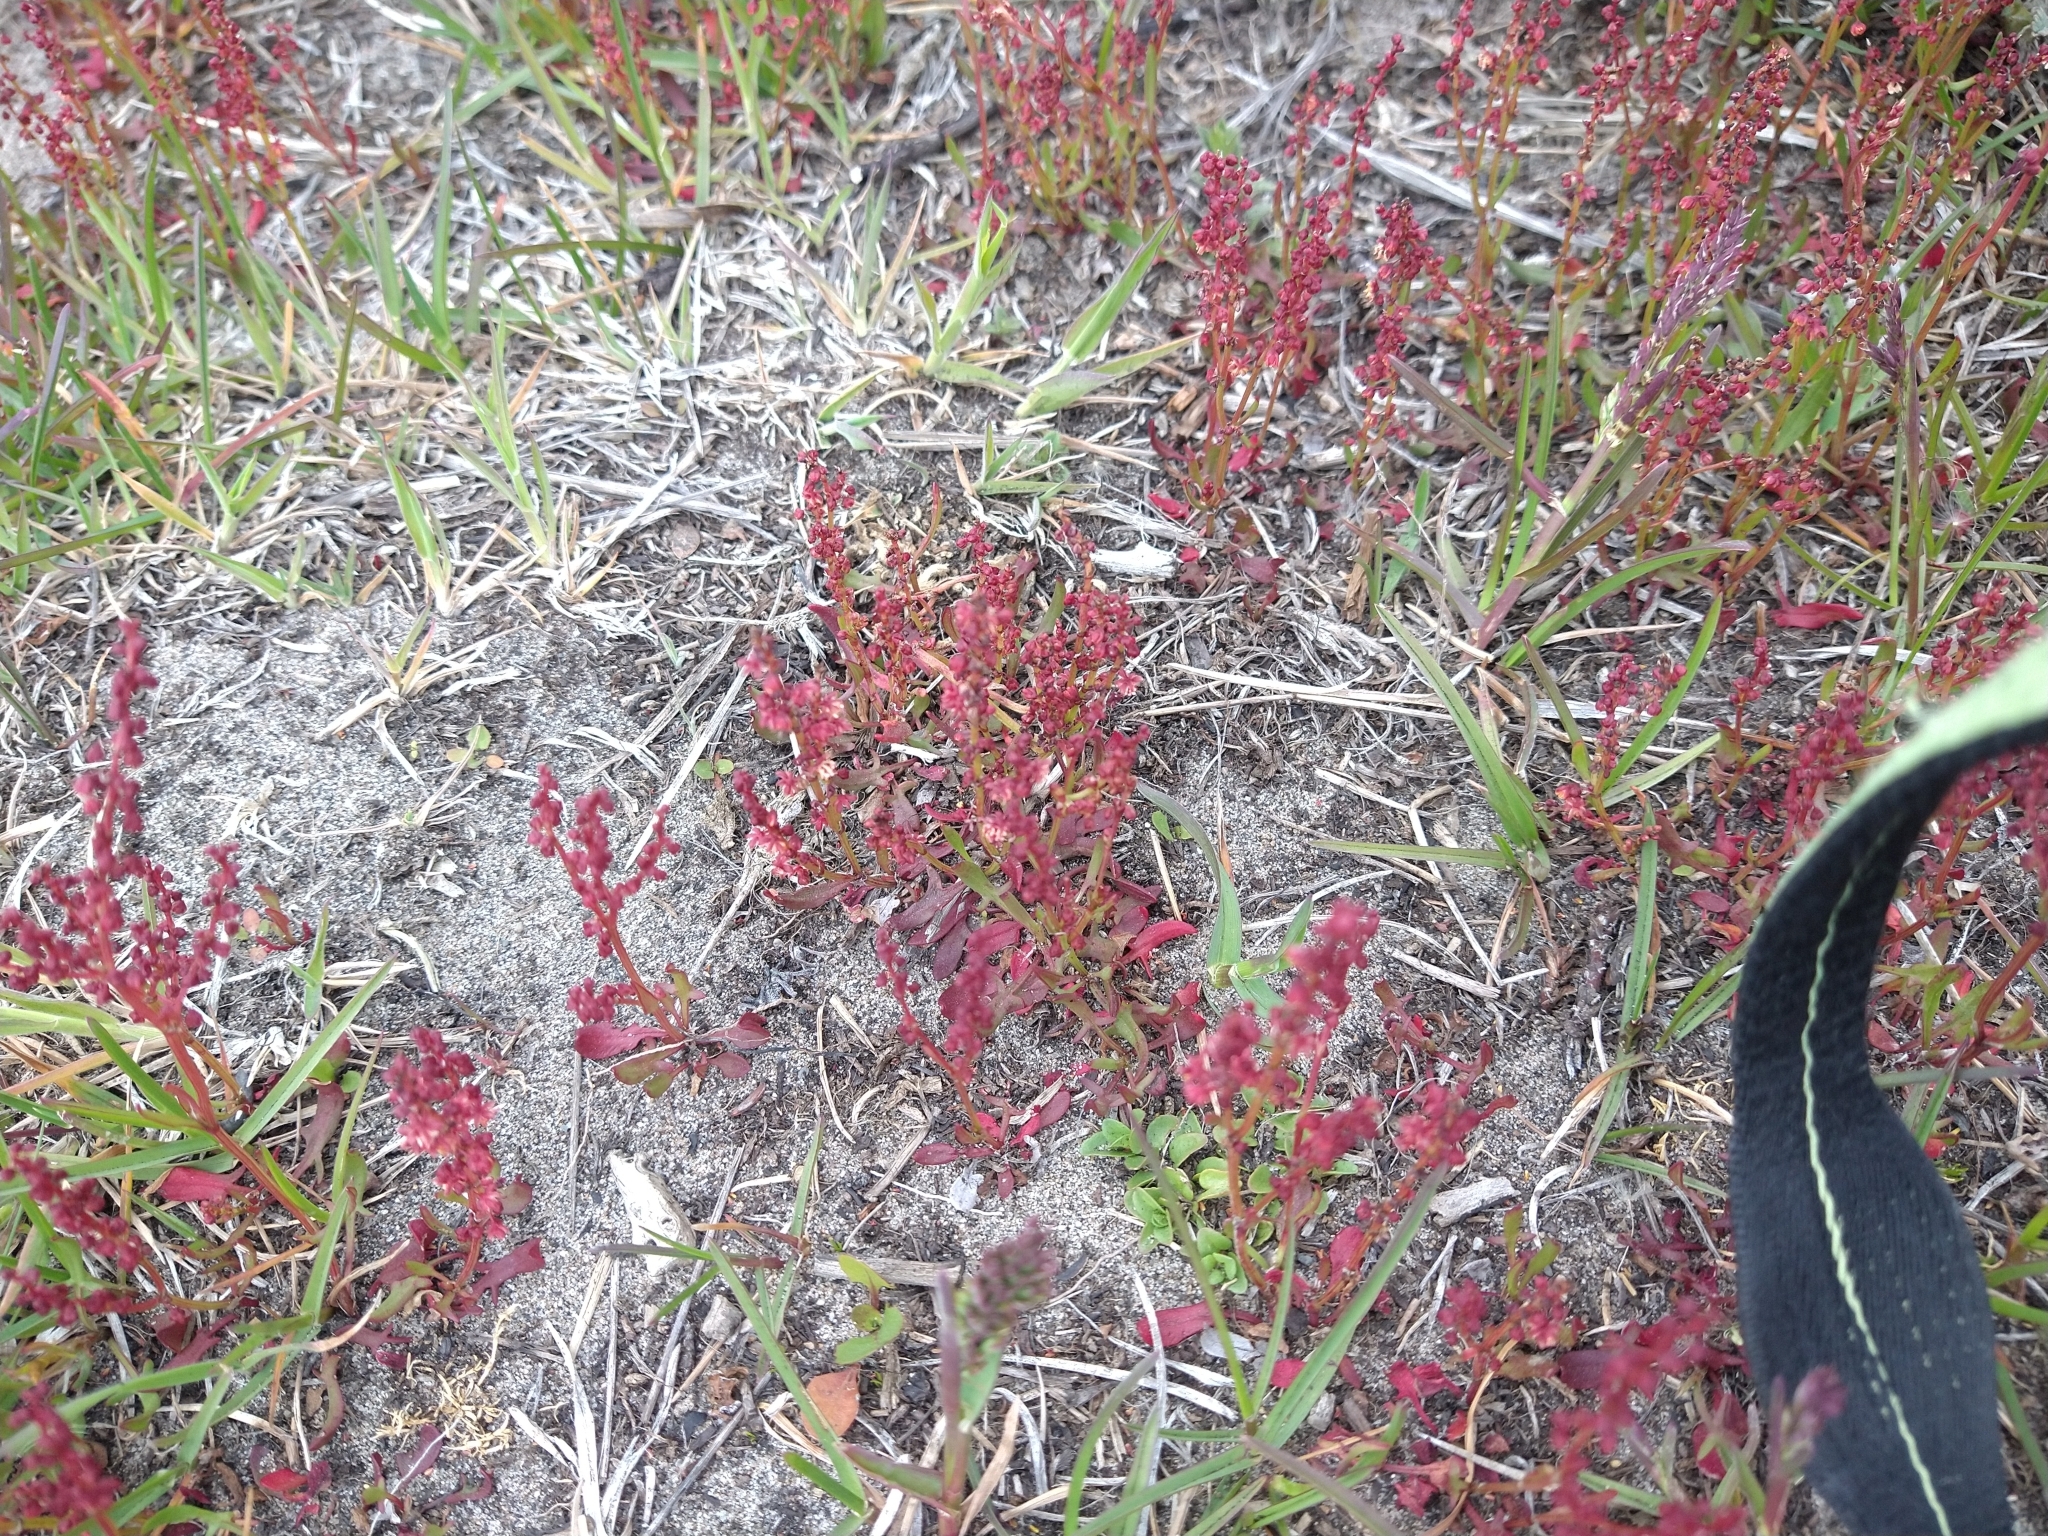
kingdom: Plantae
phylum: Tracheophyta
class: Magnoliopsida
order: Caryophyllales
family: Polygonaceae
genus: Rumex
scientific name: Rumex acetosella
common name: Common sheep sorrel
